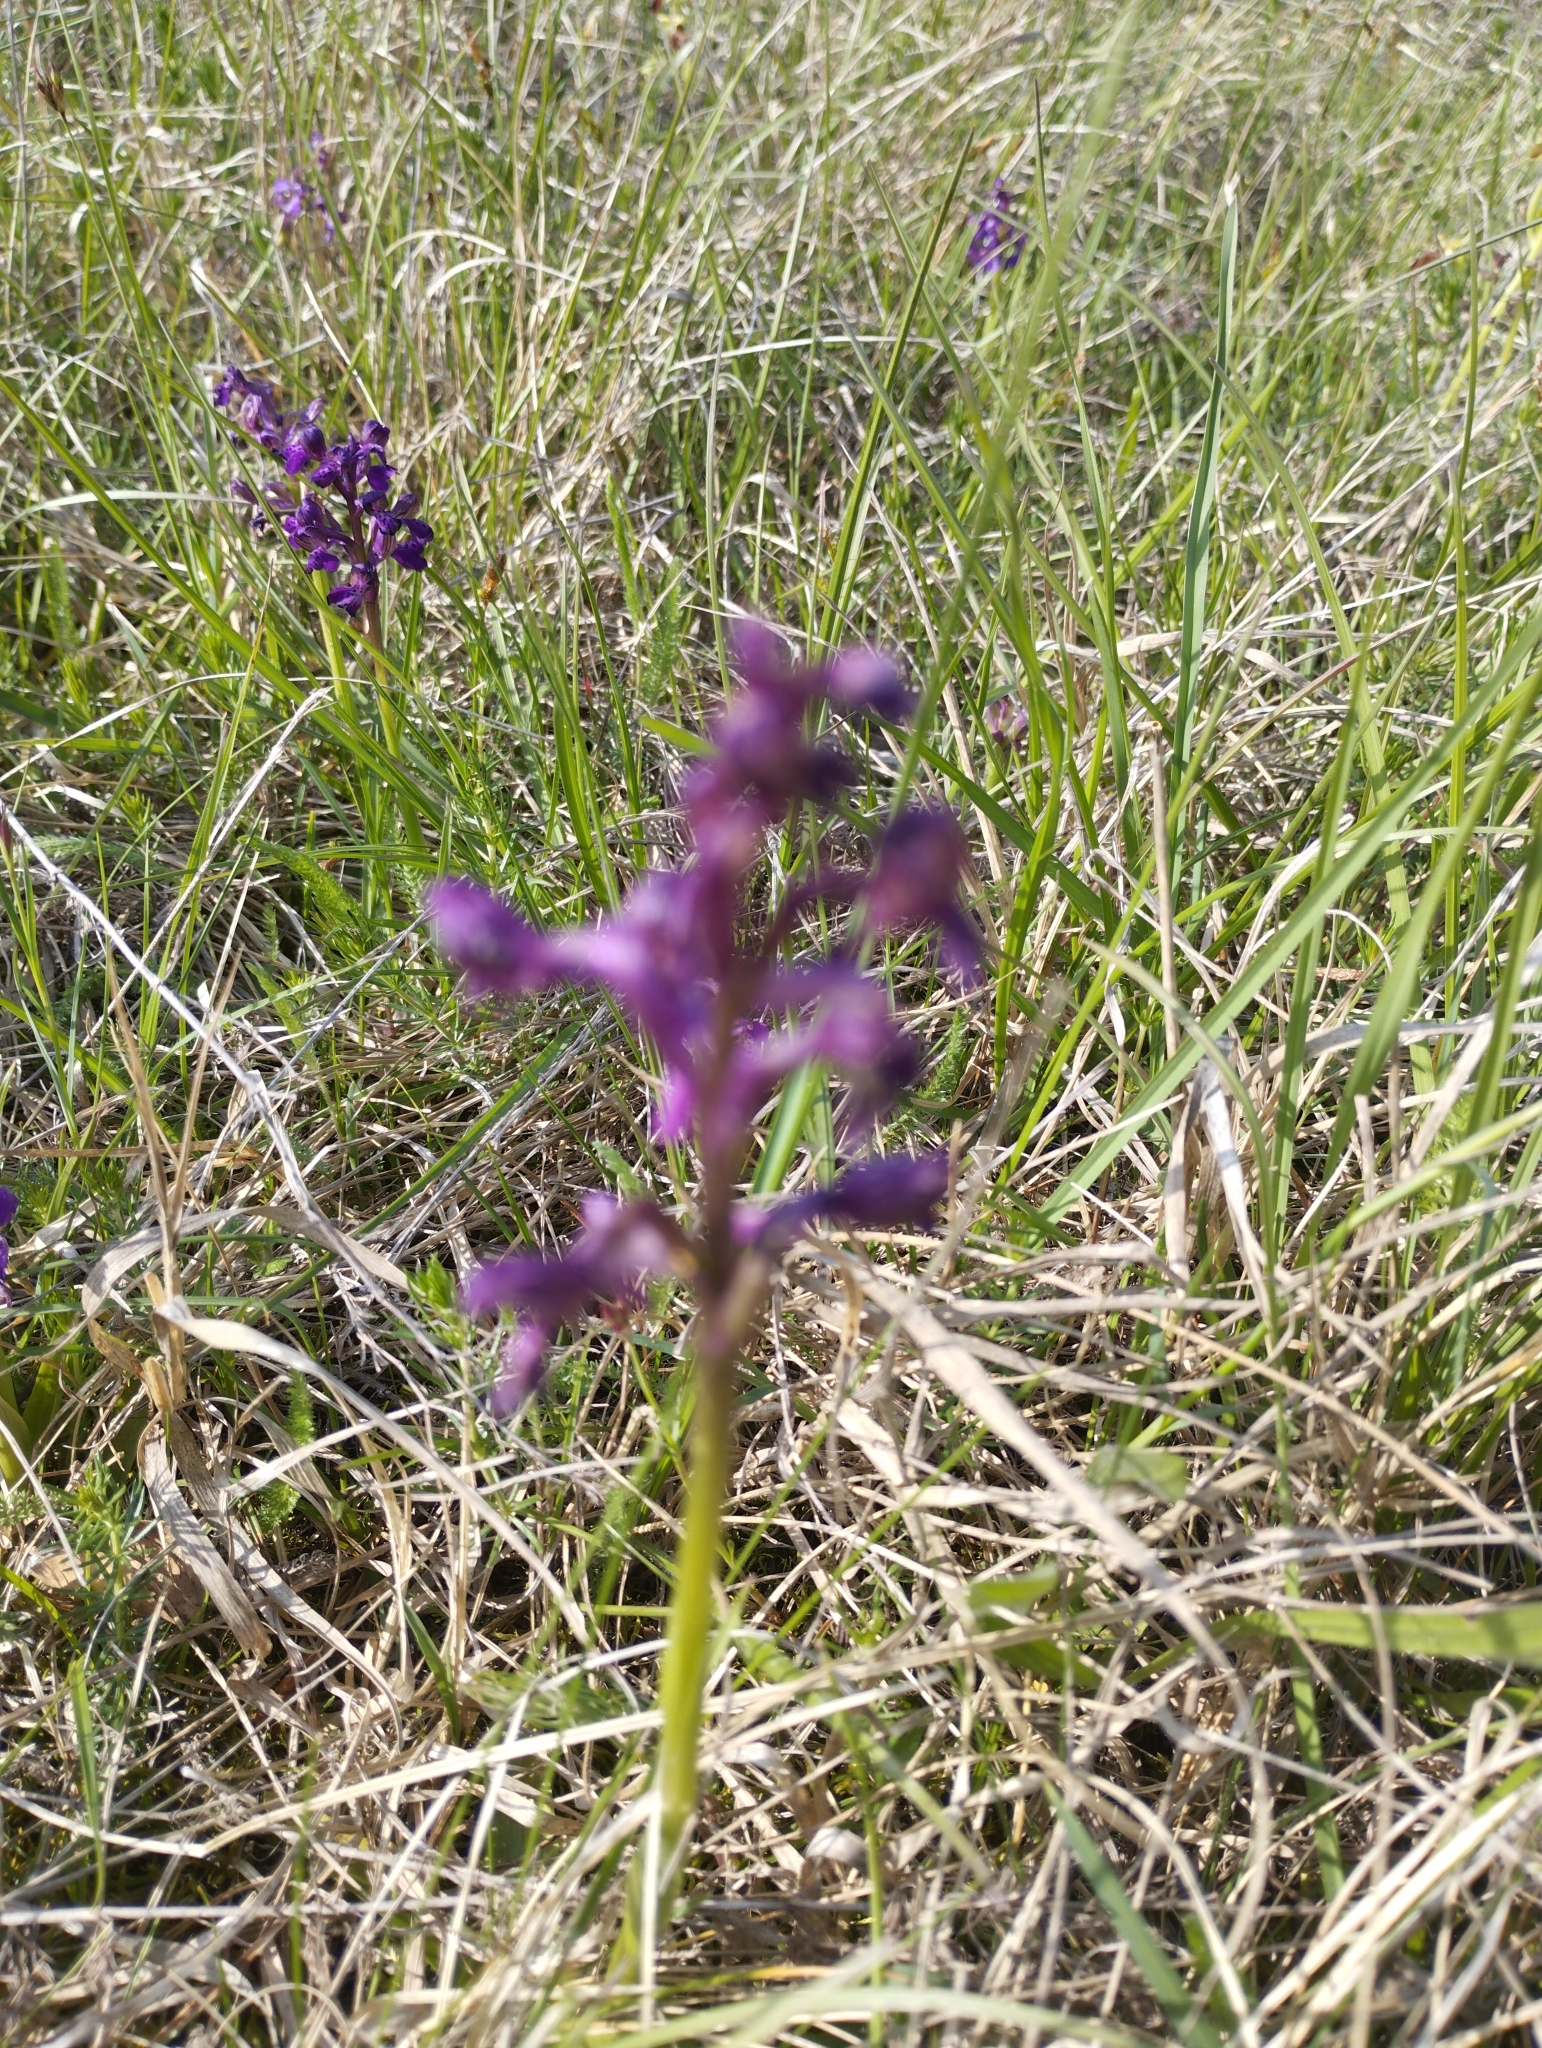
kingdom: Plantae
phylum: Tracheophyta
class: Liliopsida
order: Asparagales
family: Orchidaceae
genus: Anacamptis
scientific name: Anacamptis morio
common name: Green-winged orchid
